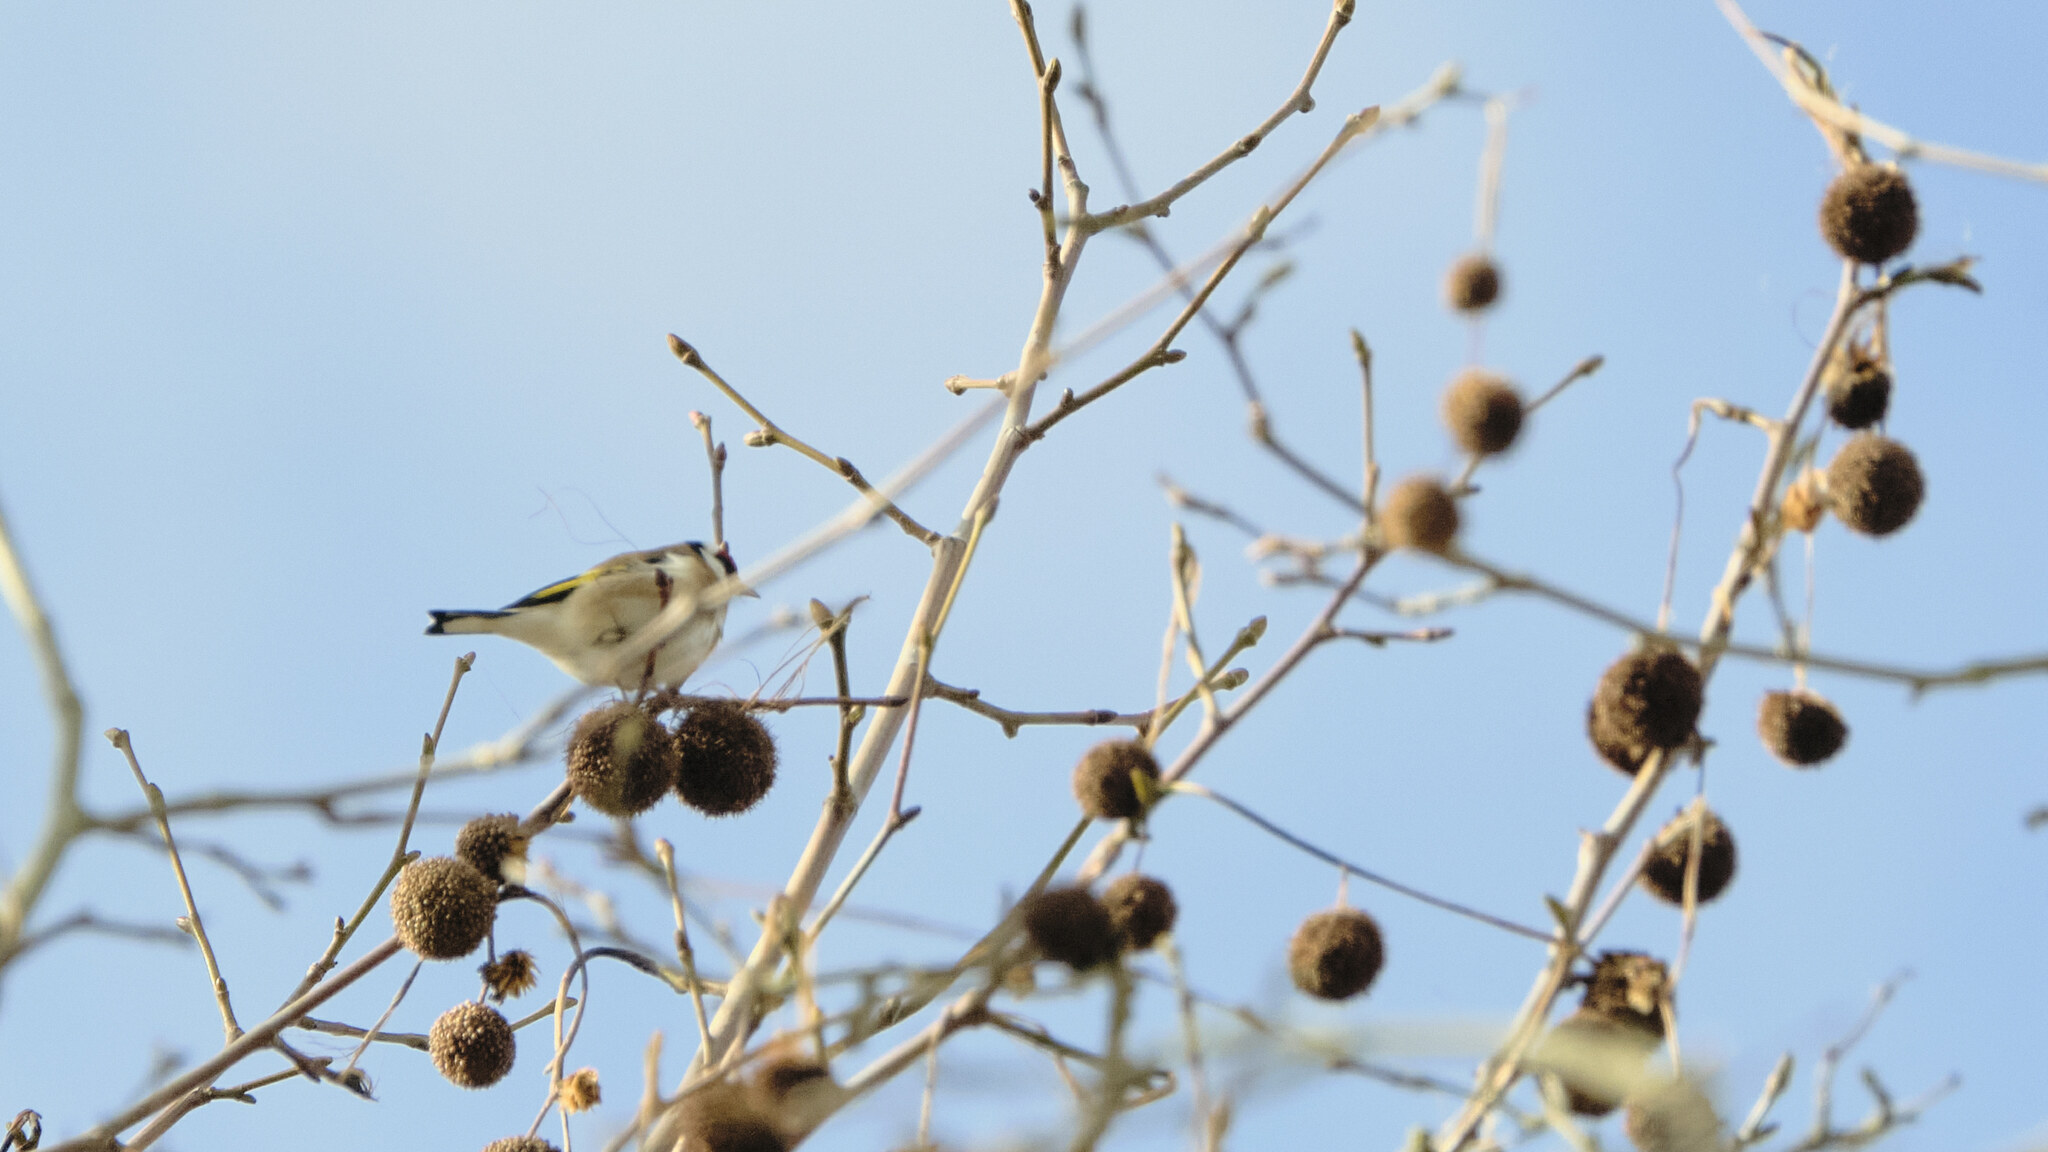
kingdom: Animalia
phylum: Chordata
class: Aves
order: Passeriformes
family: Fringillidae
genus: Carduelis
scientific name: Carduelis carduelis
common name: European goldfinch
